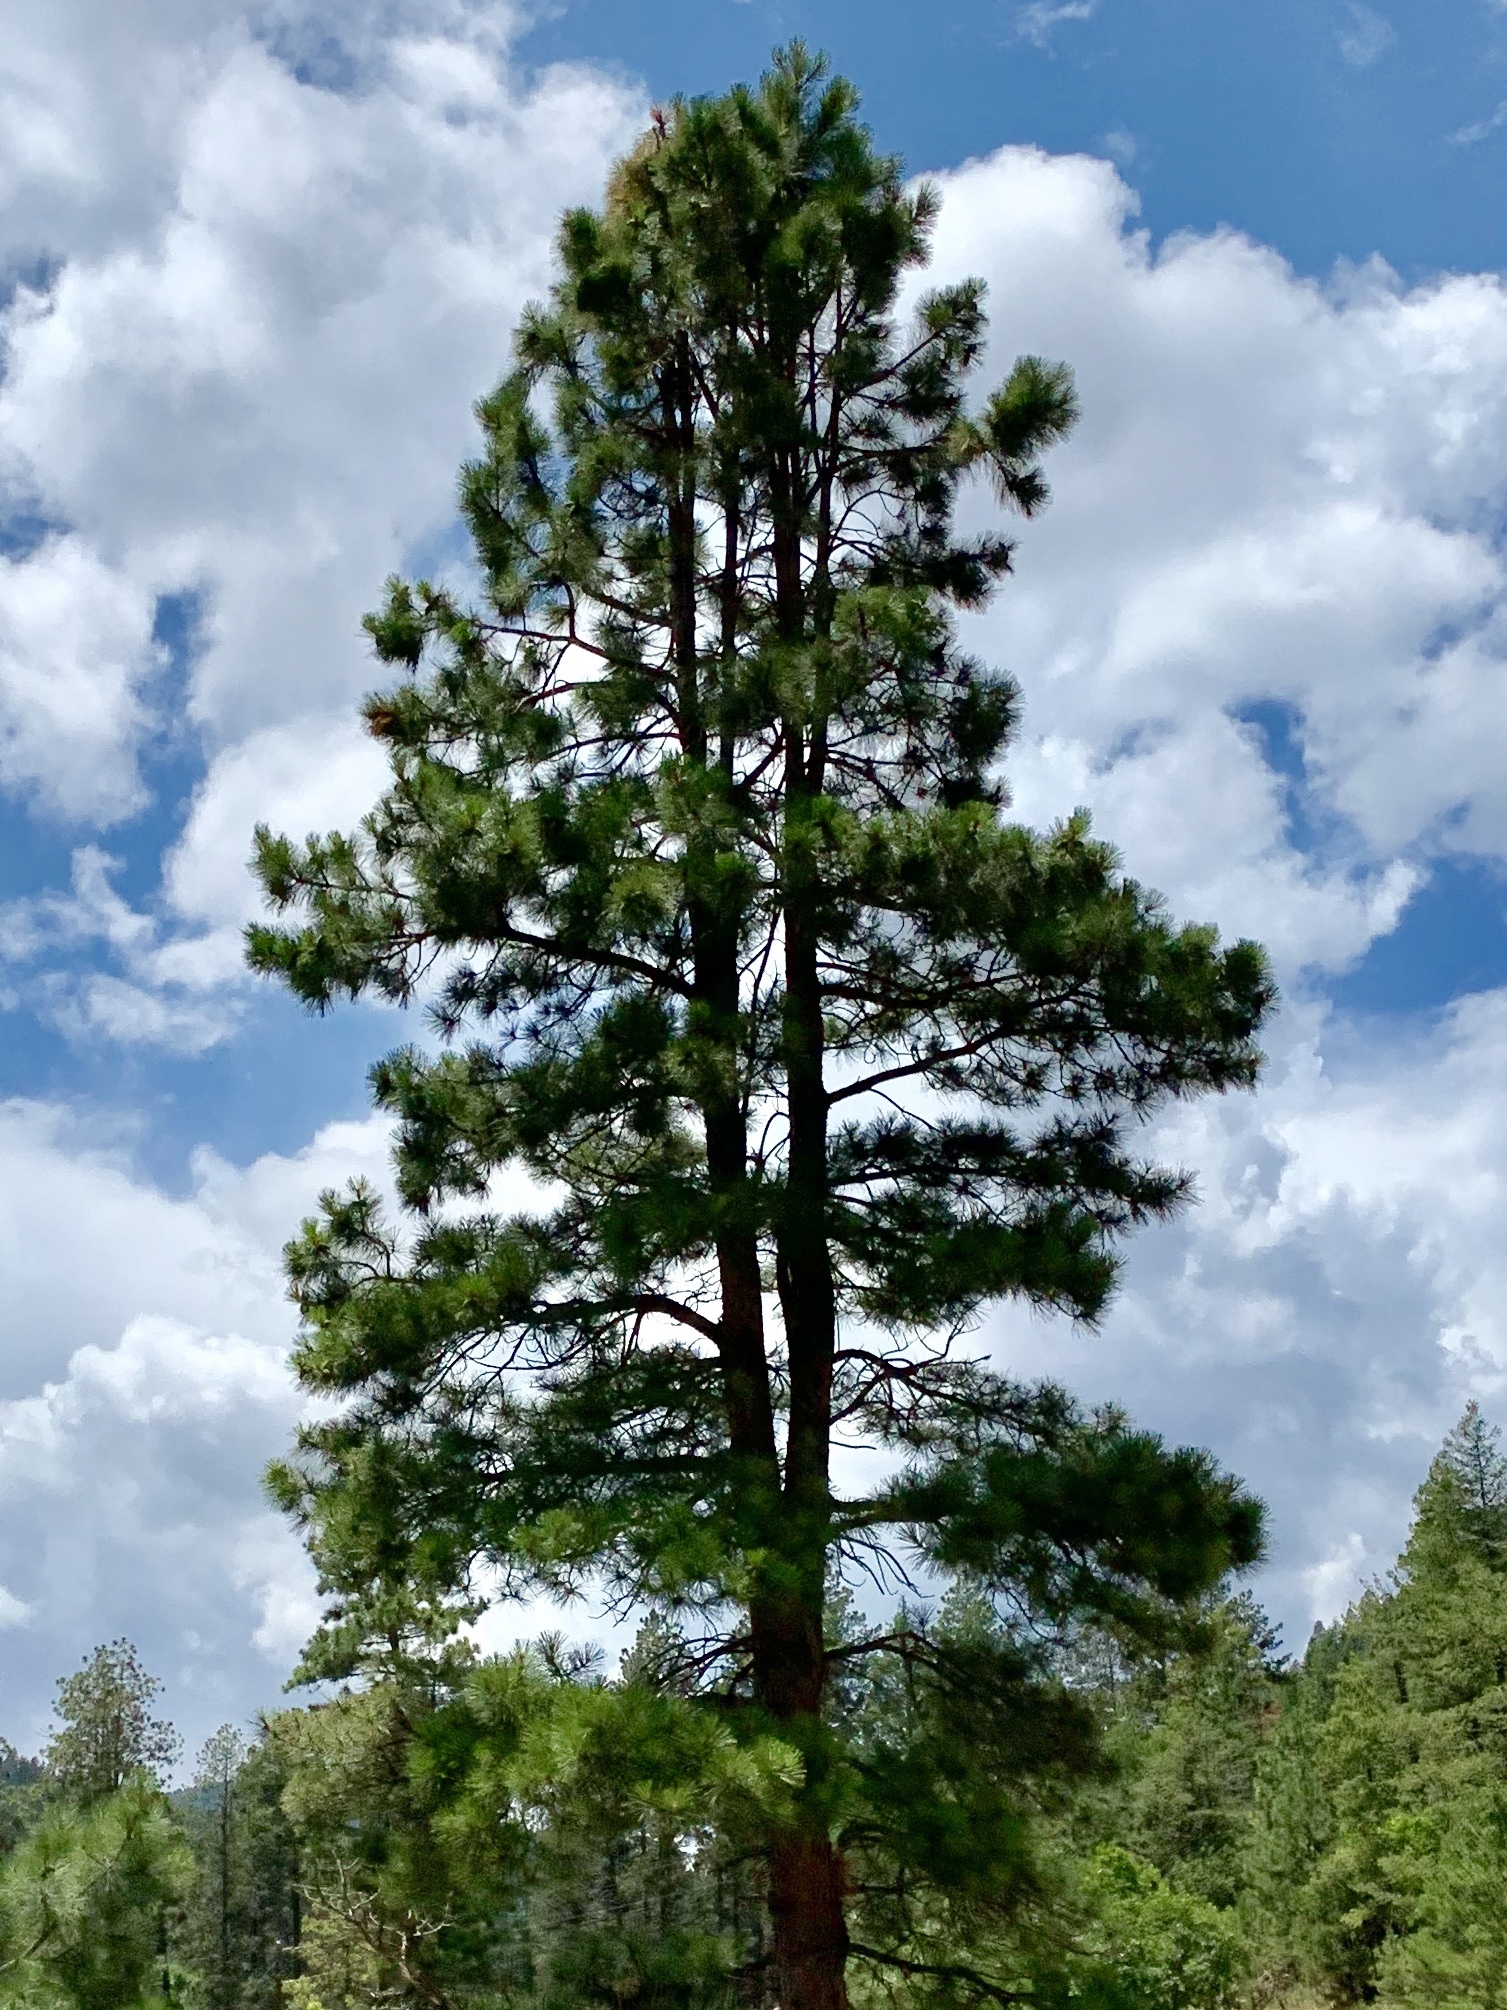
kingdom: Plantae
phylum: Tracheophyta
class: Pinopsida
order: Pinales
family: Pinaceae
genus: Pinus
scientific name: Pinus ponderosa
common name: Western yellow-pine
